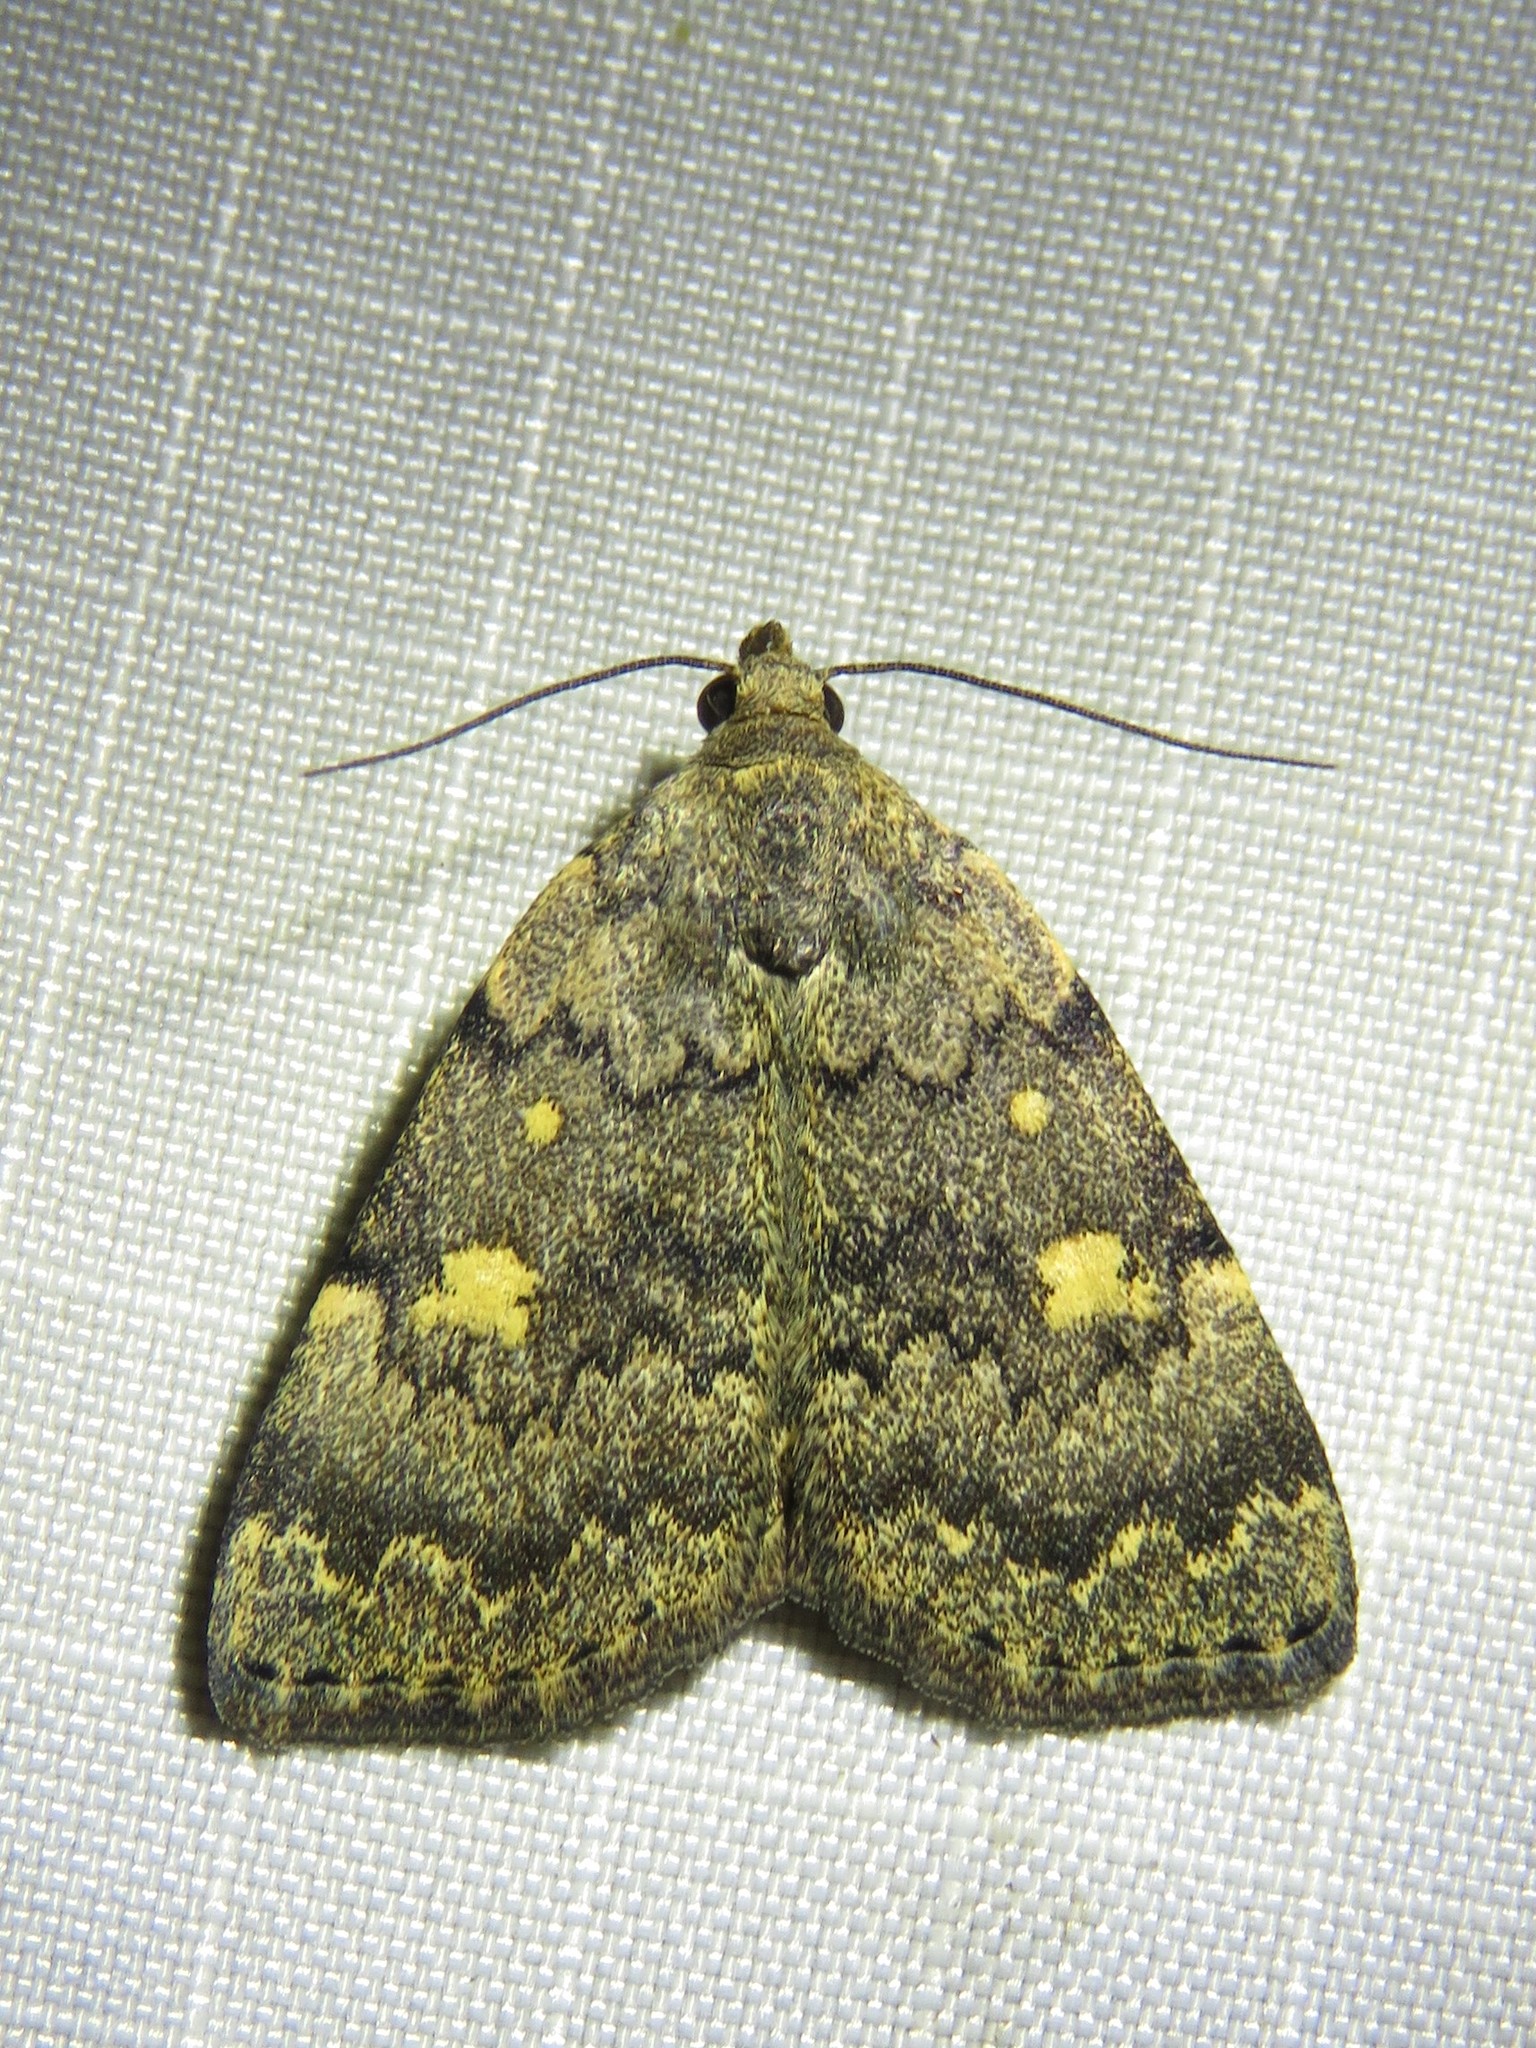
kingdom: Animalia
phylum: Arthropoda
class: Insecta
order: Lepidoptera
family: Erebidae
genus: Idia
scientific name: Idia aemula
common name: Common idia moth
